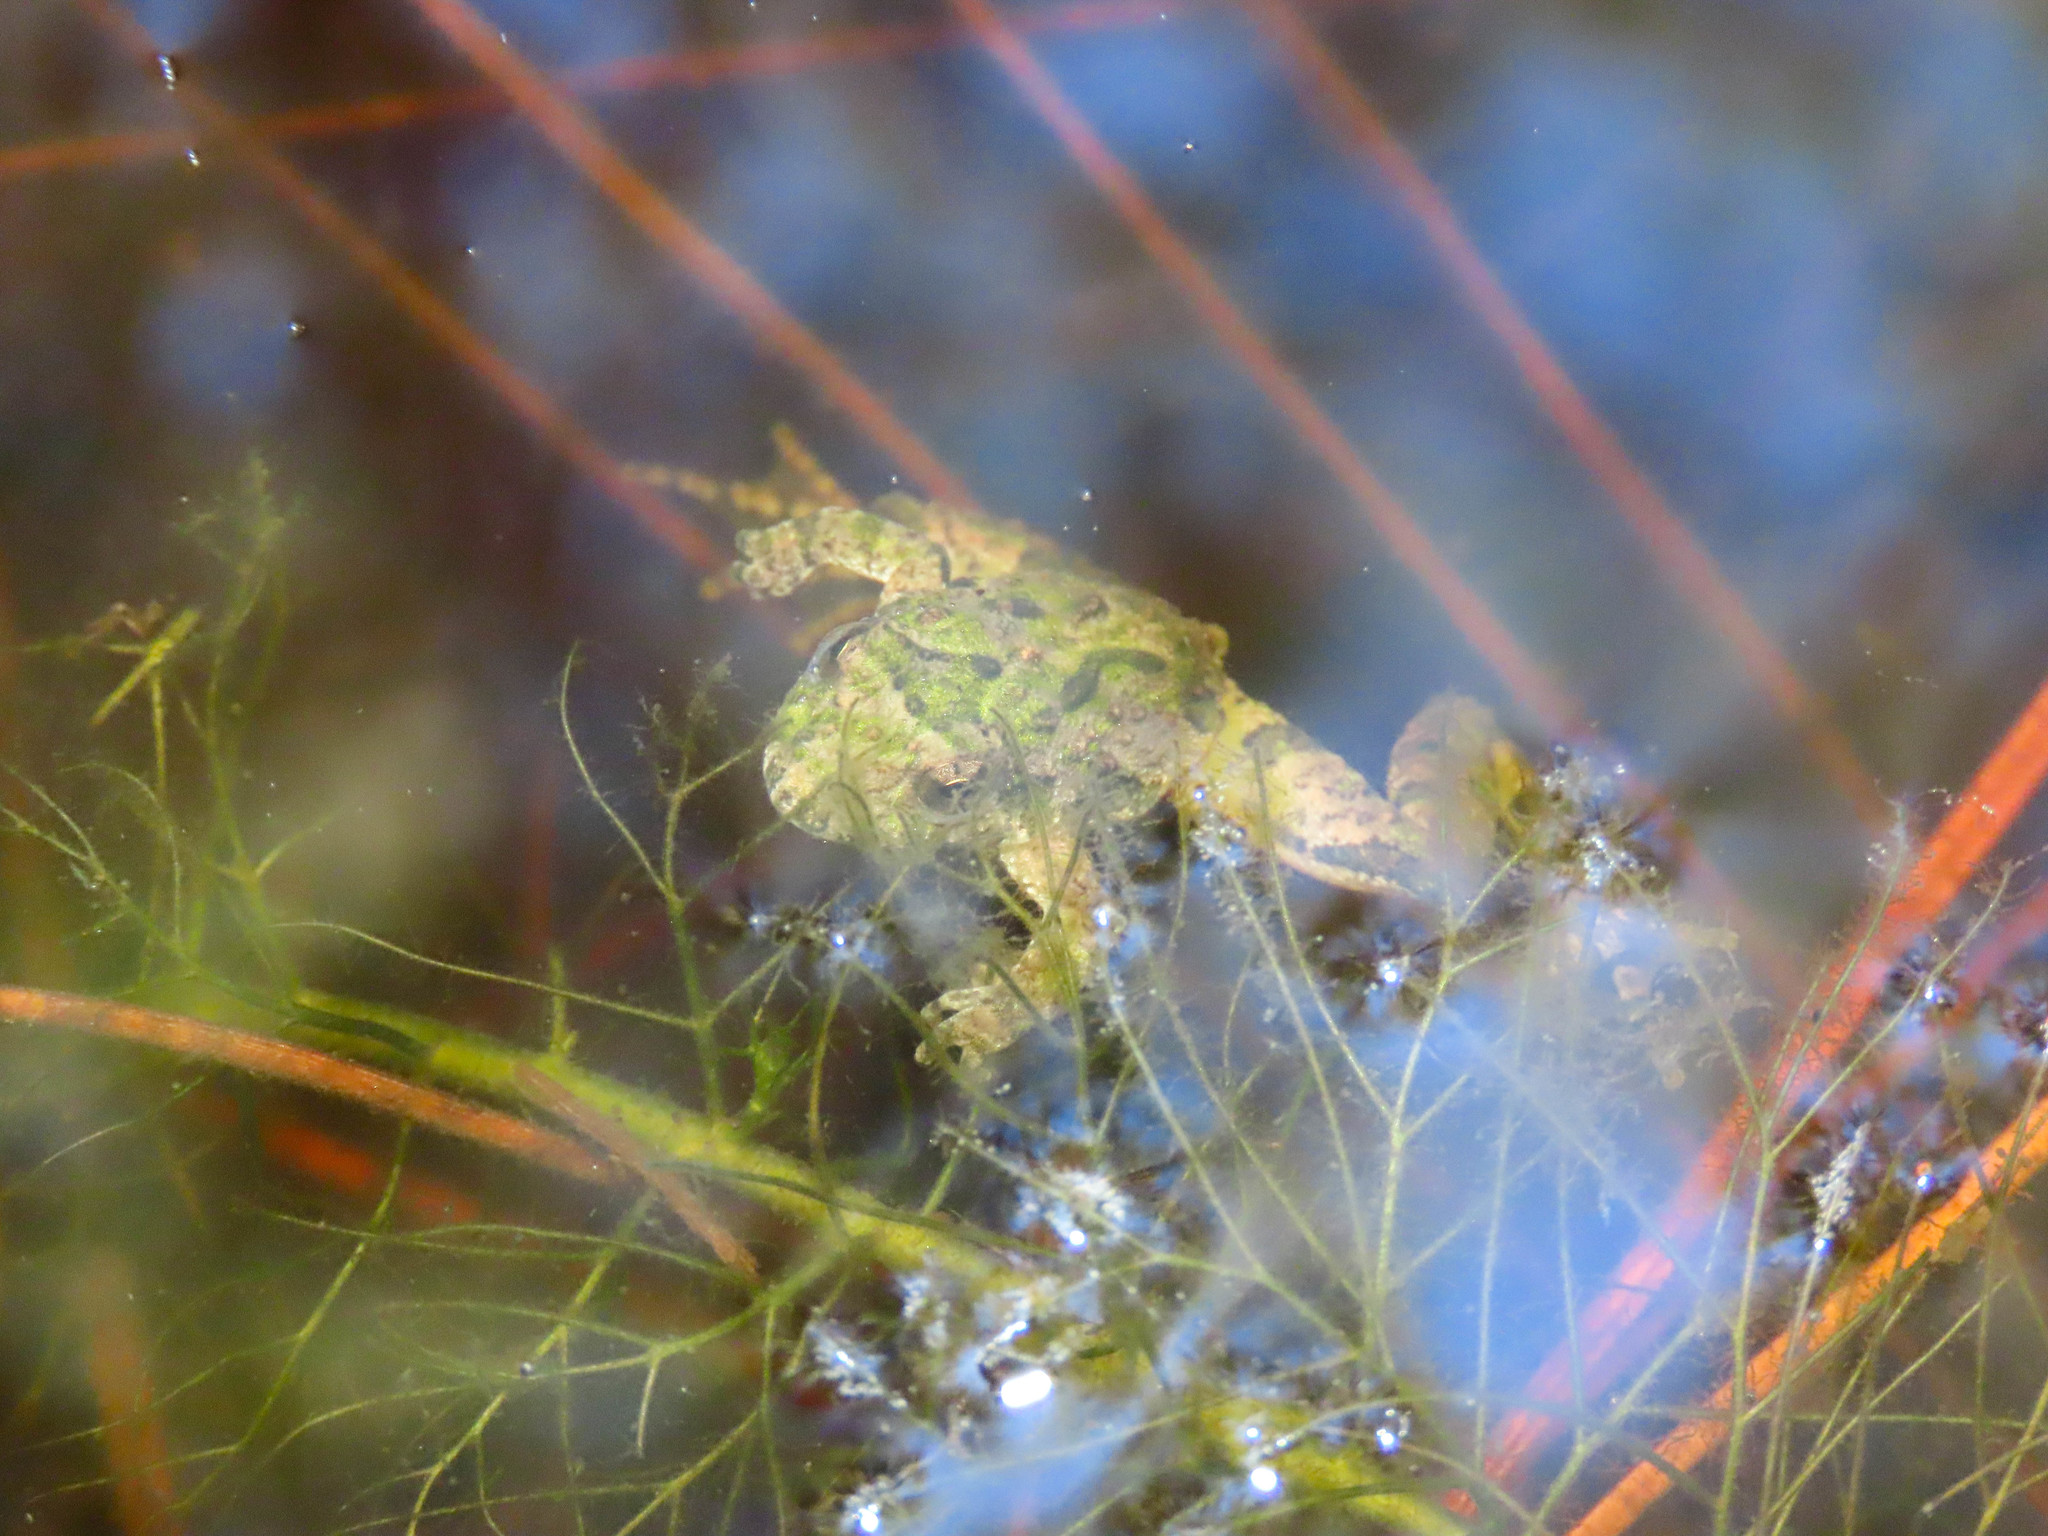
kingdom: Animalia
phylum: Chordata
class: Amphibia
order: Anura
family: Hylidae
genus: Acris
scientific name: Acris crepitans
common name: Northern cricket frog
